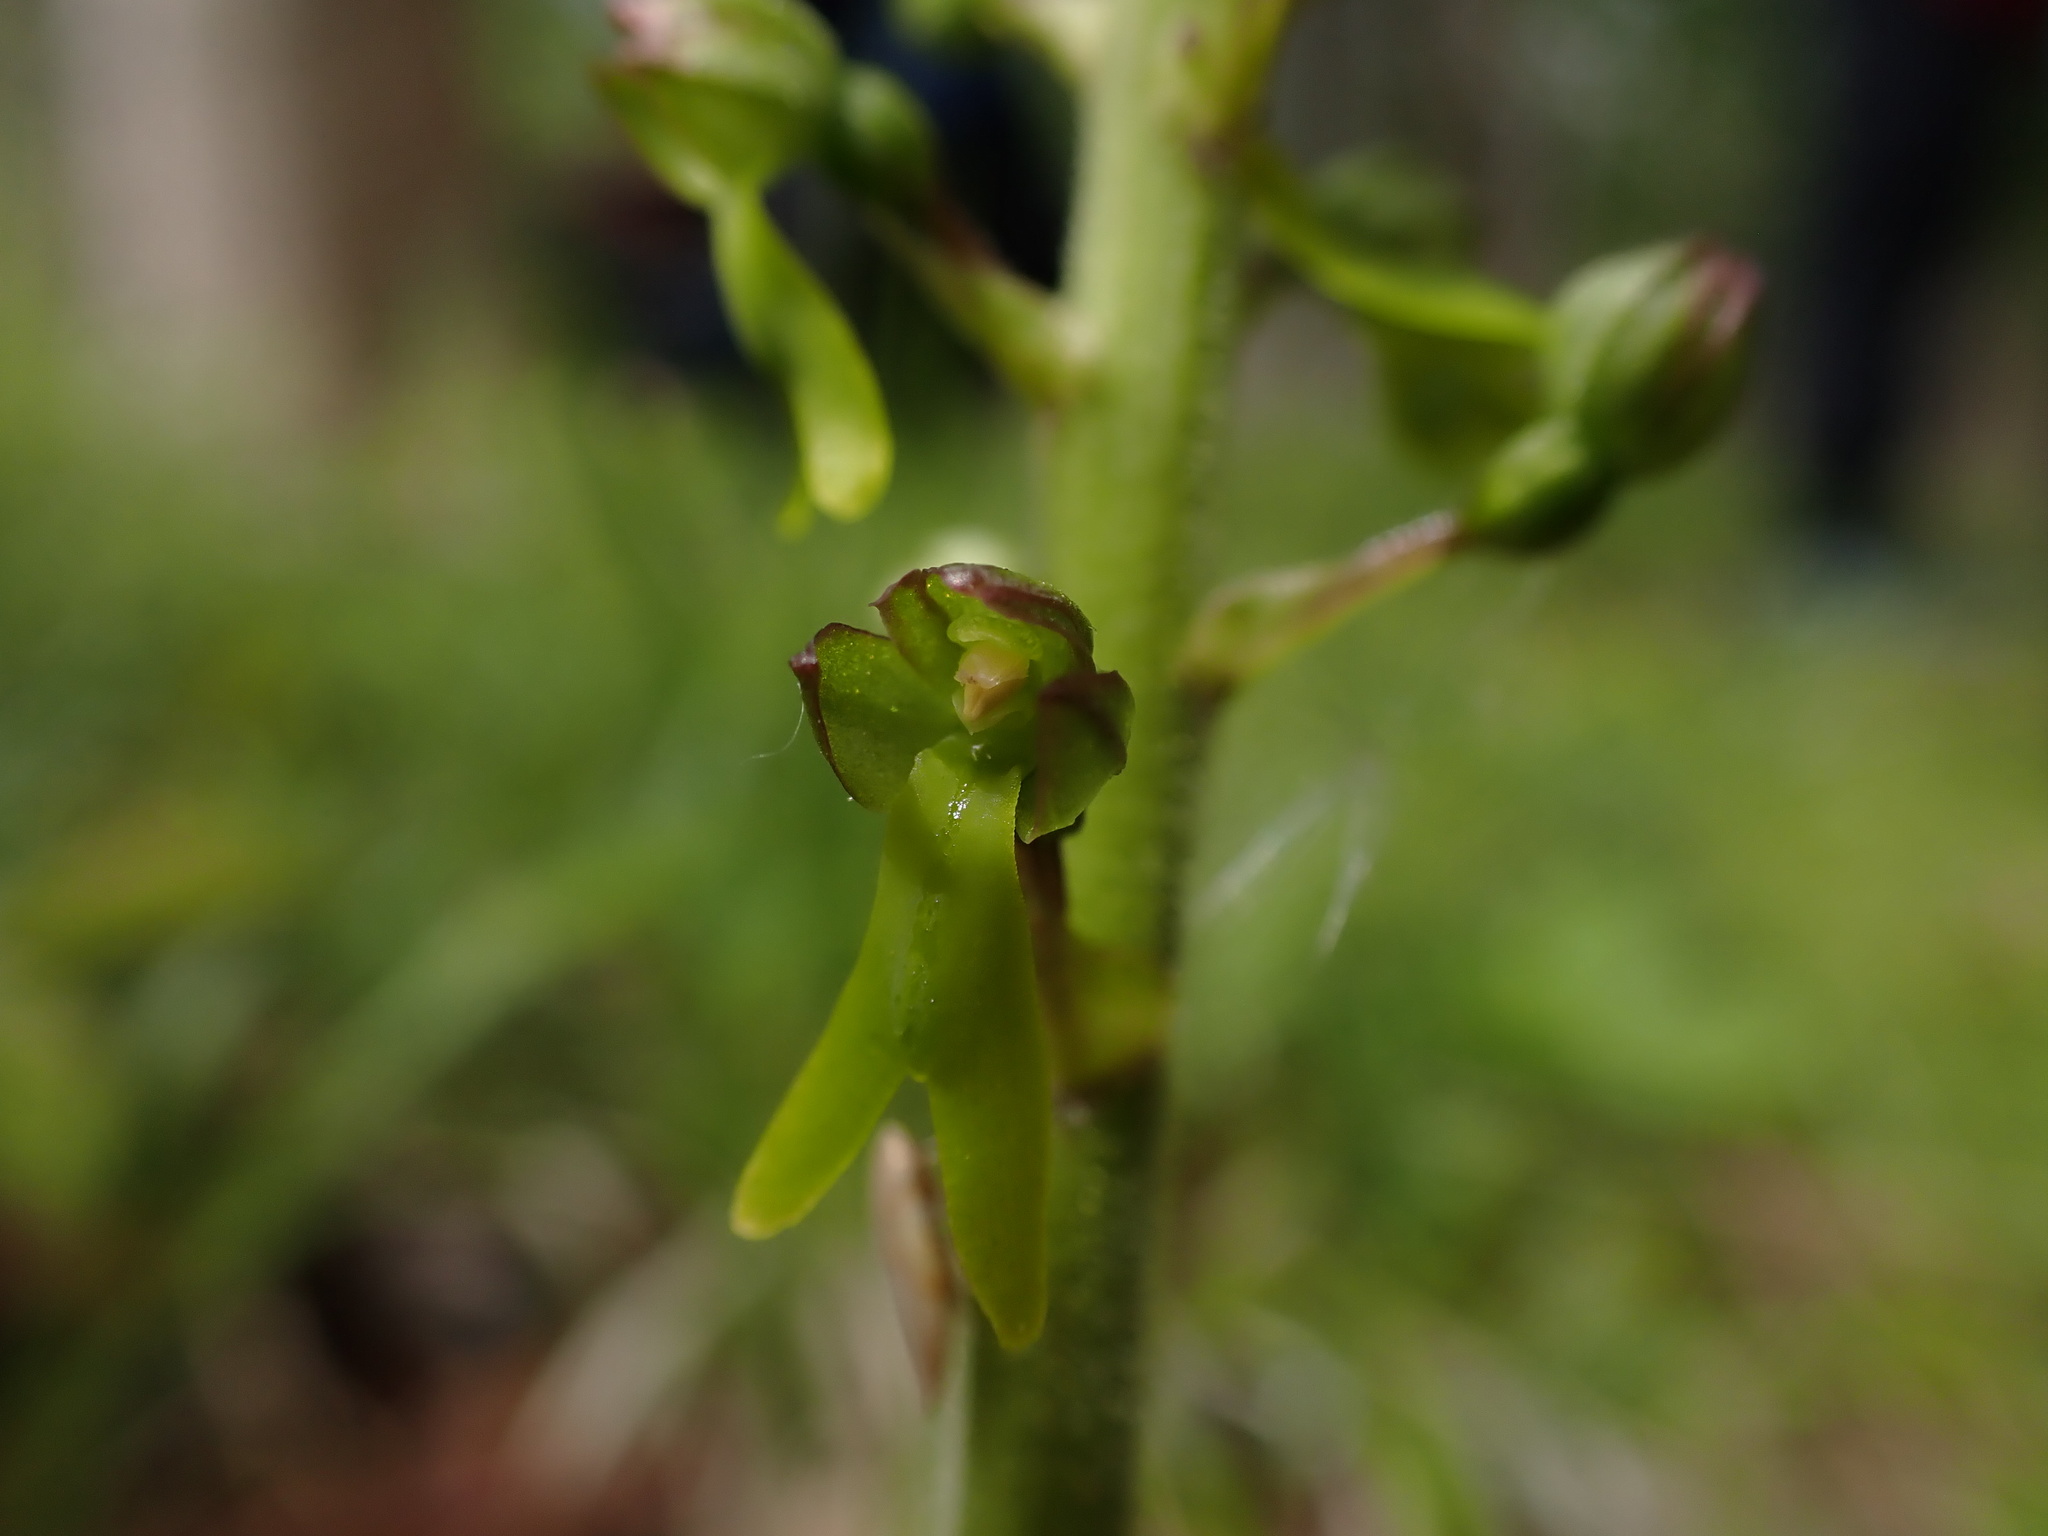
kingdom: Plantae
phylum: Tracheophyta
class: Liliopsida
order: Asparagales
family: Orchidaceae
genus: Neottia
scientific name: Neottia ovata
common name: Common twayblade
